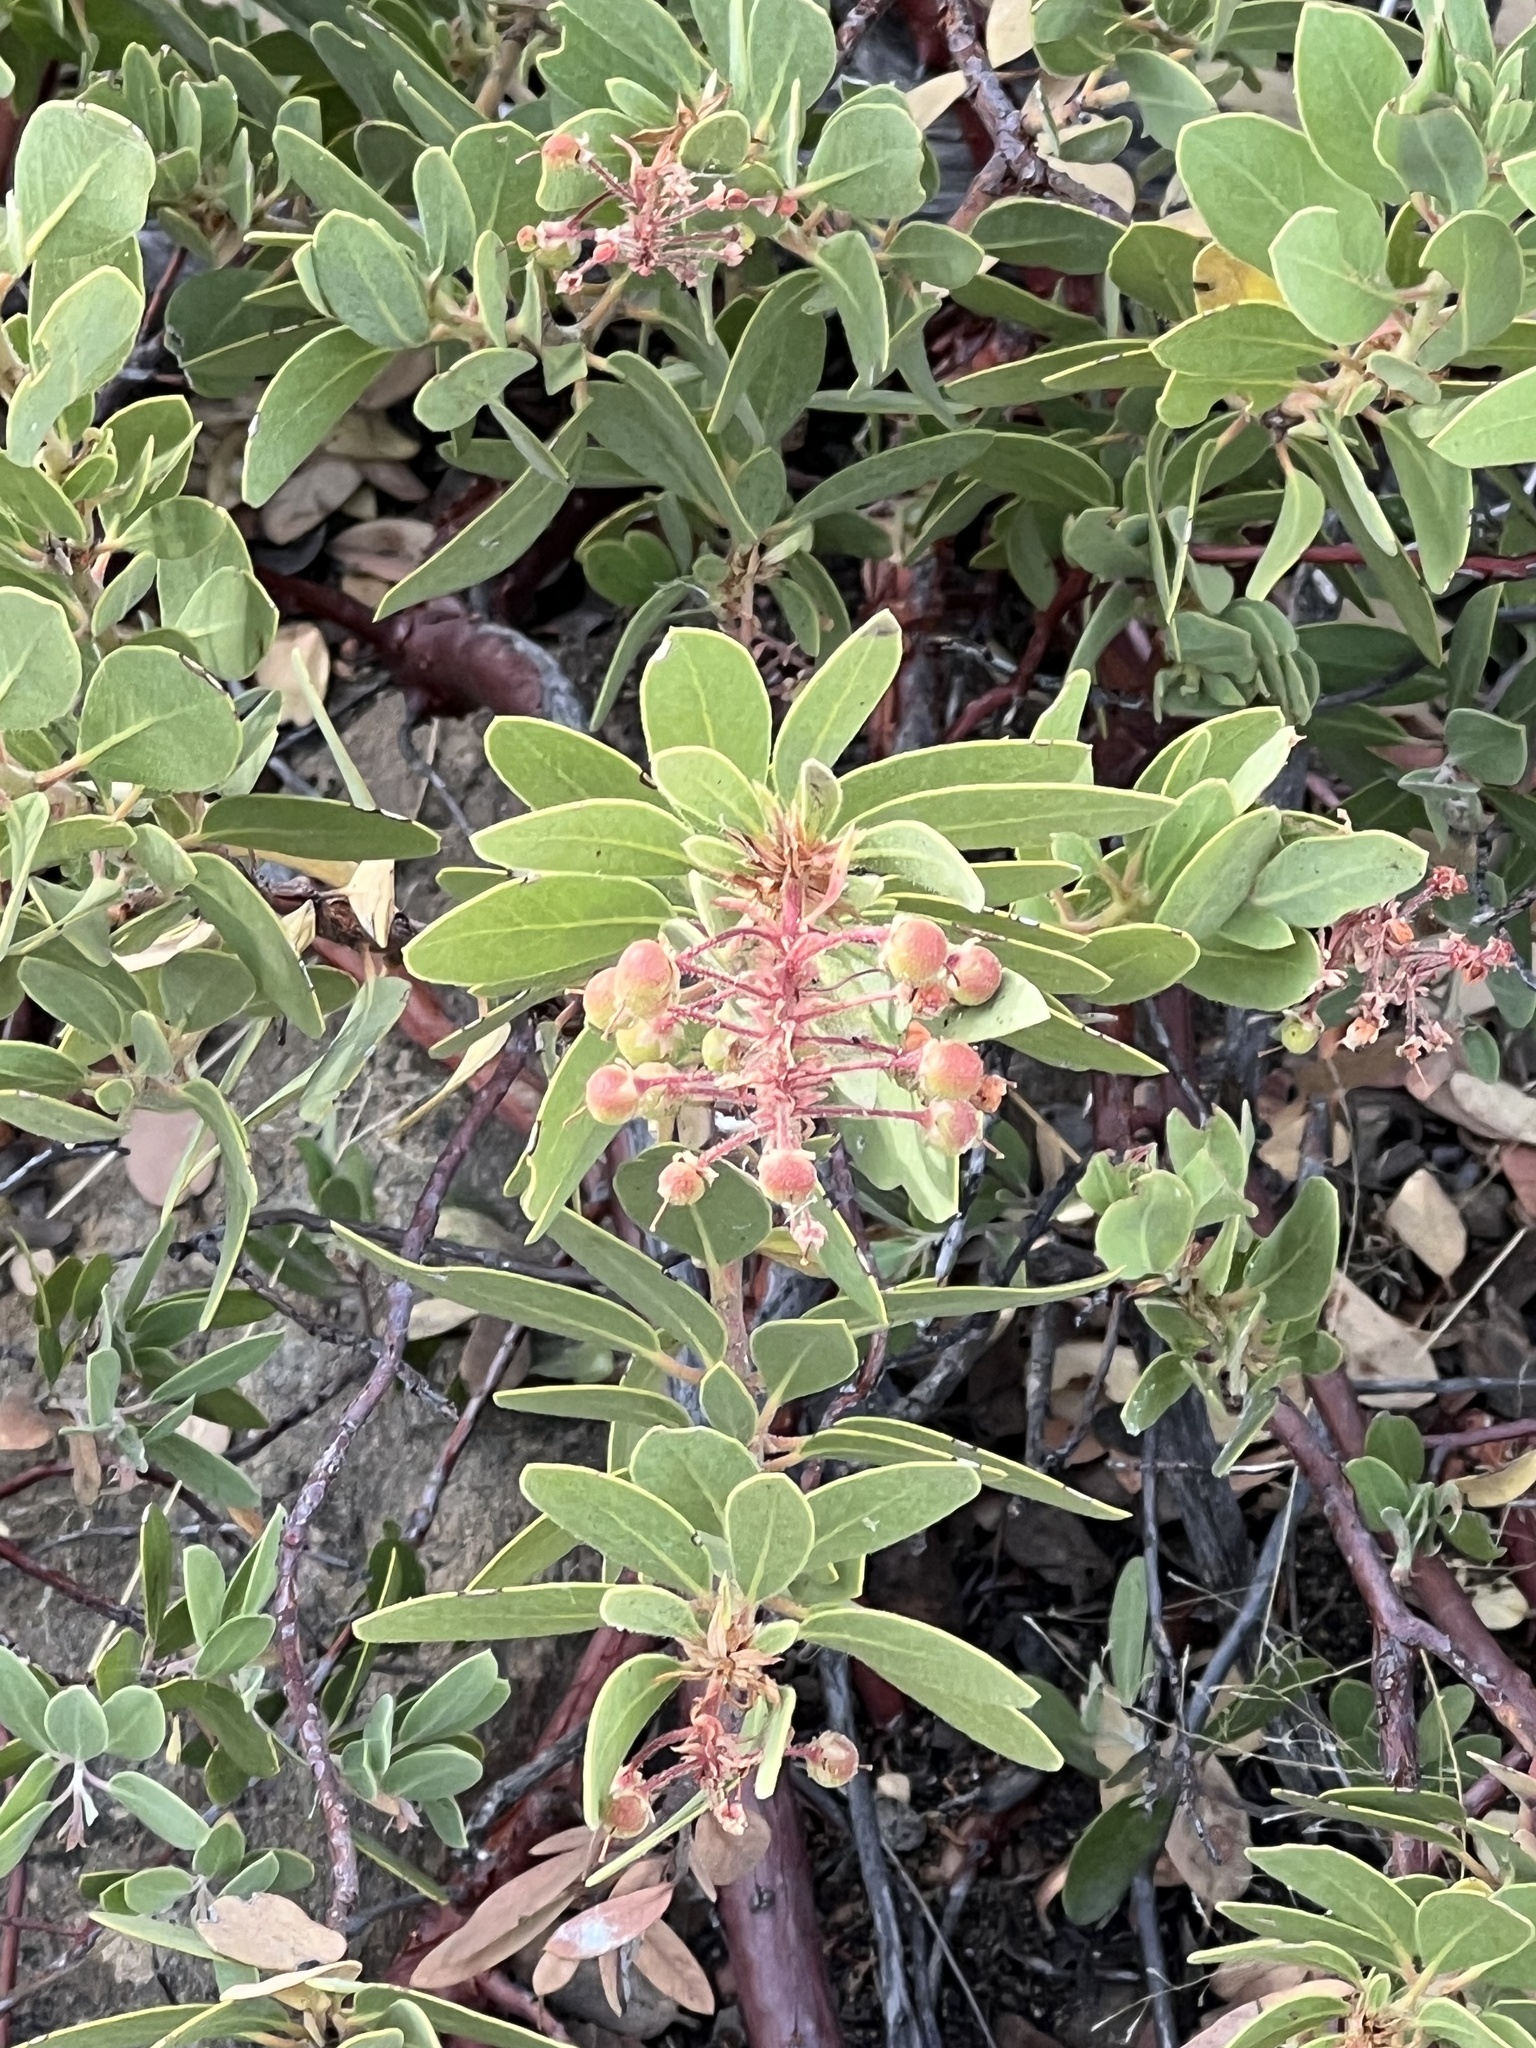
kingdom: Plantae
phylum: Tracheophyta
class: Magnoliopsida
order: Ericales
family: Ericaceae
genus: Arctostaphylos
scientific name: Arctostaphylos pringlei
